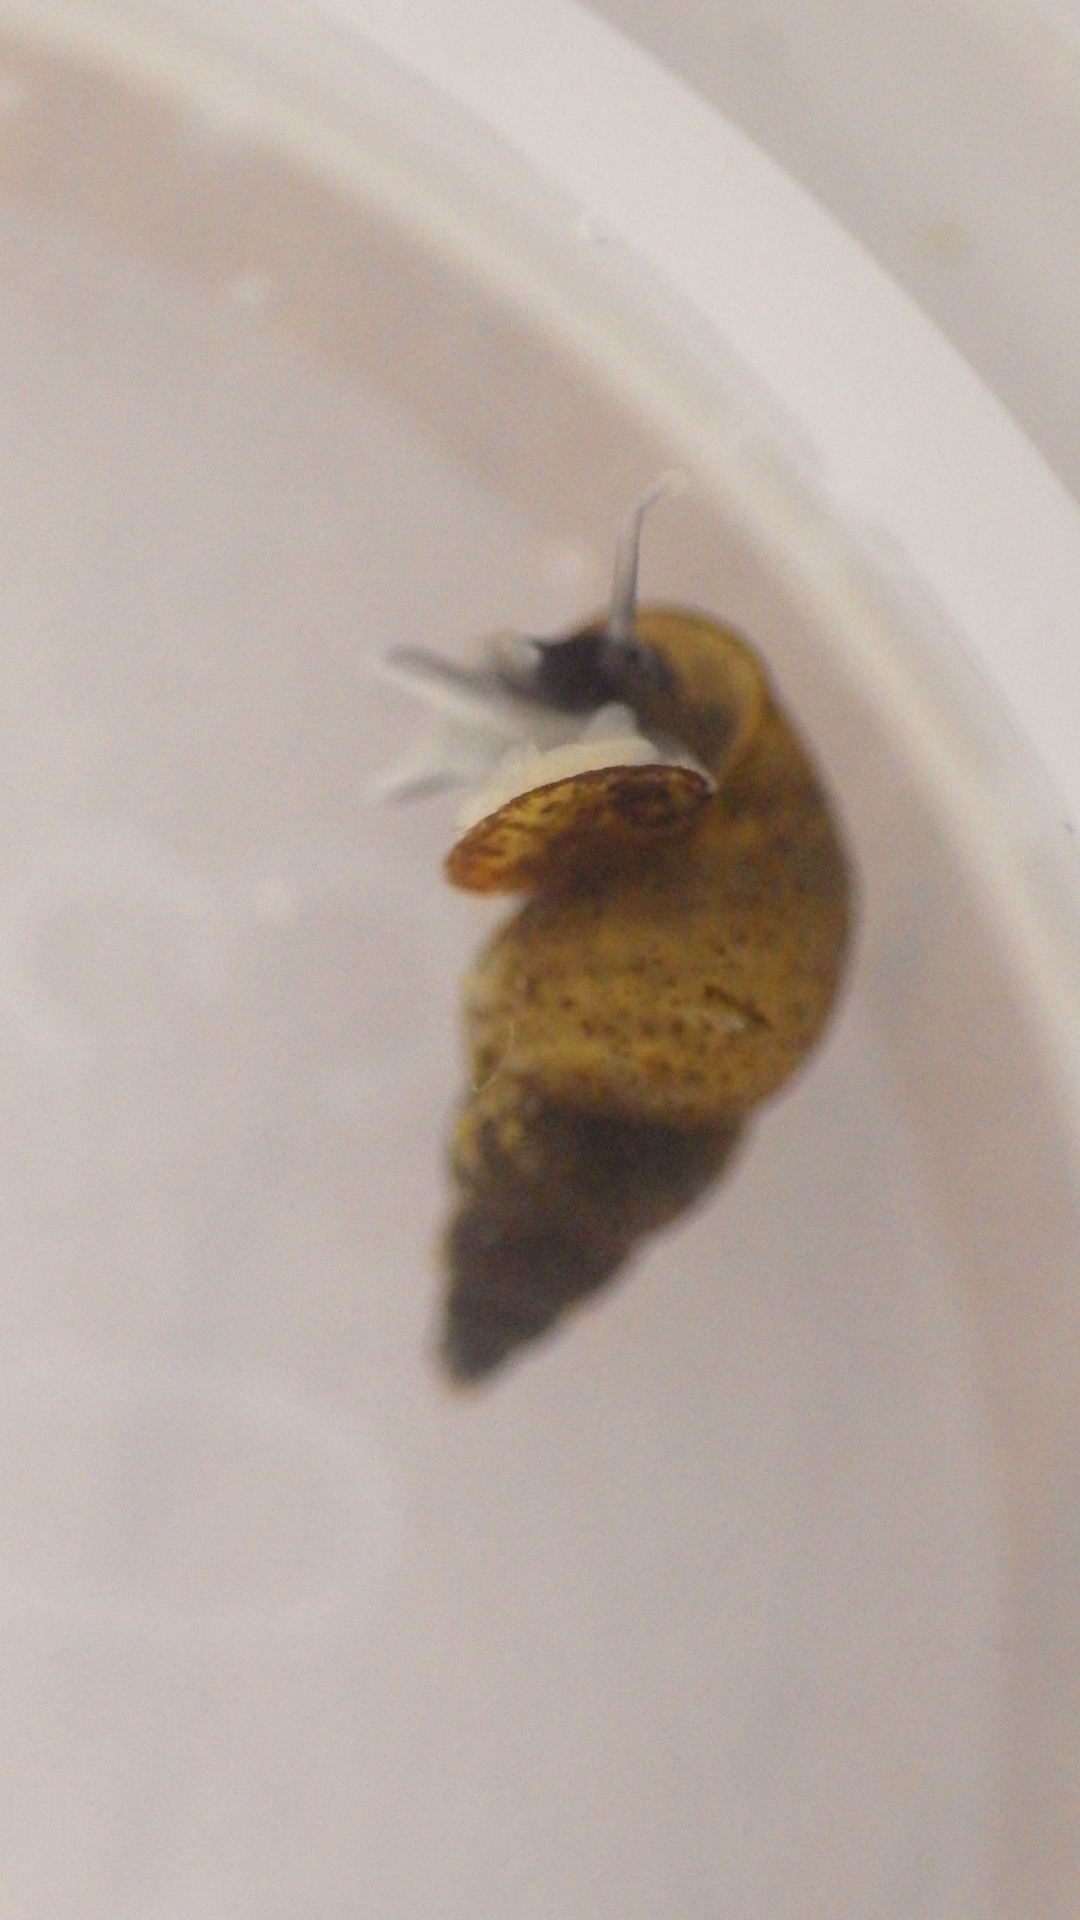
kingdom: Animalia
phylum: Mollusca
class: Gastropoda
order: Littorinimorpha
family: Tateidae
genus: Potamopyrgus
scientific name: Potamopyrgus antipodarum
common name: Jenkins' spire snail
